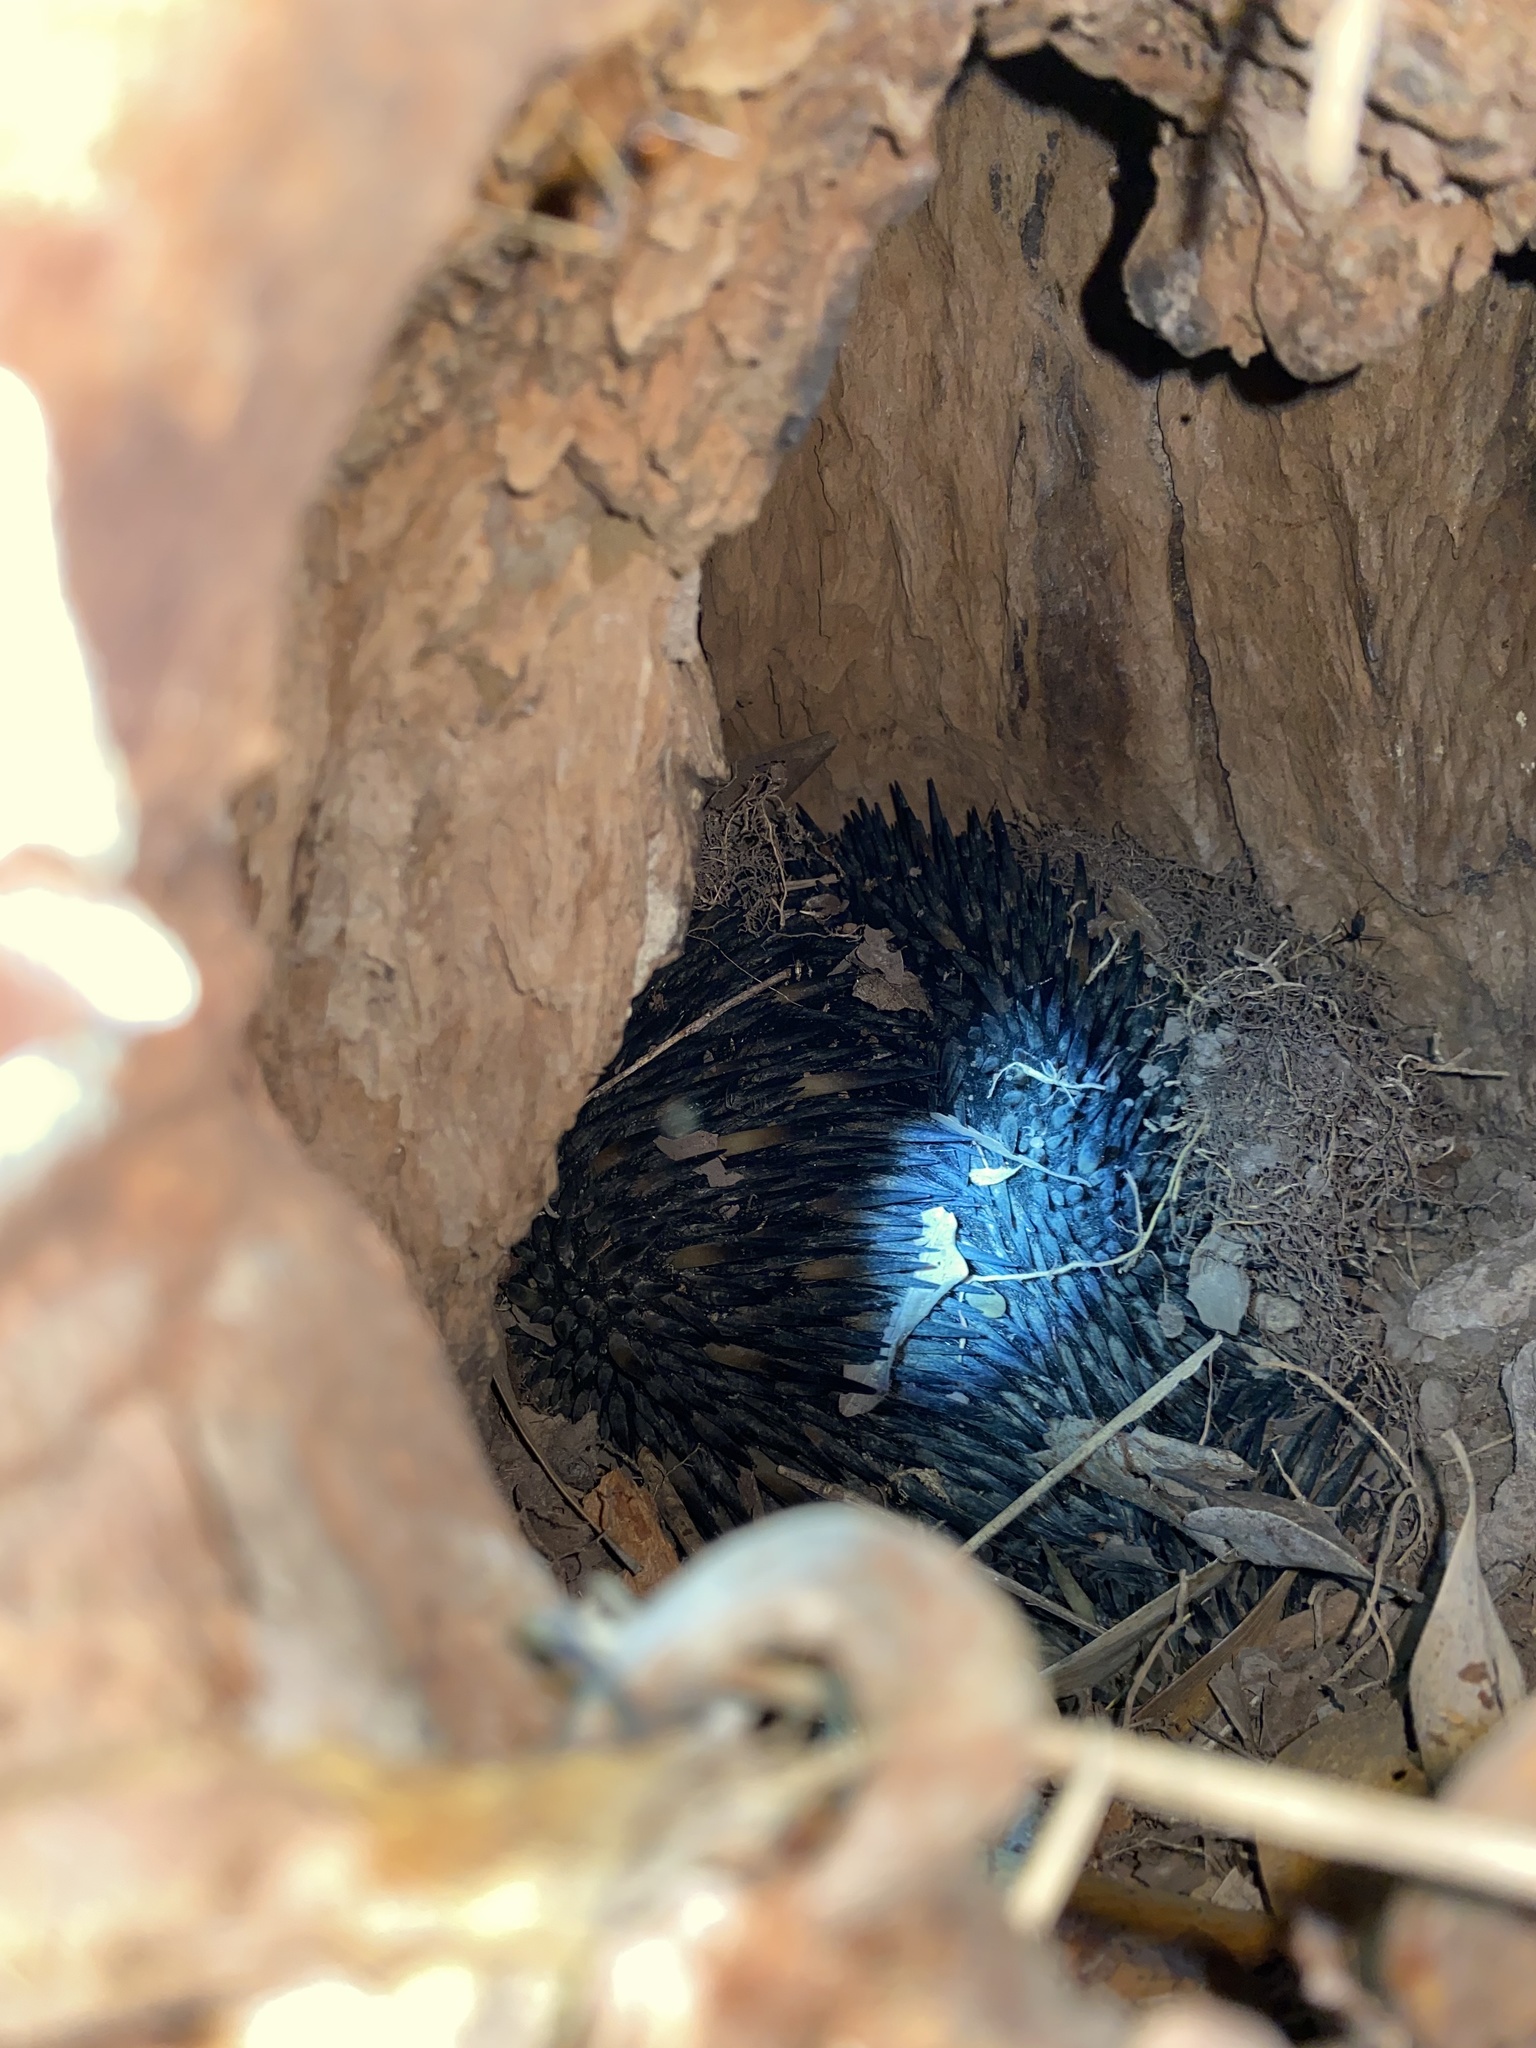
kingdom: Animalia
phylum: Chordata
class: Mammalia
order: Monotremata
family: Tachyglossidae
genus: Tachyglossus
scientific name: Tachyglossus aculeatus
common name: Short-beaked echidna
